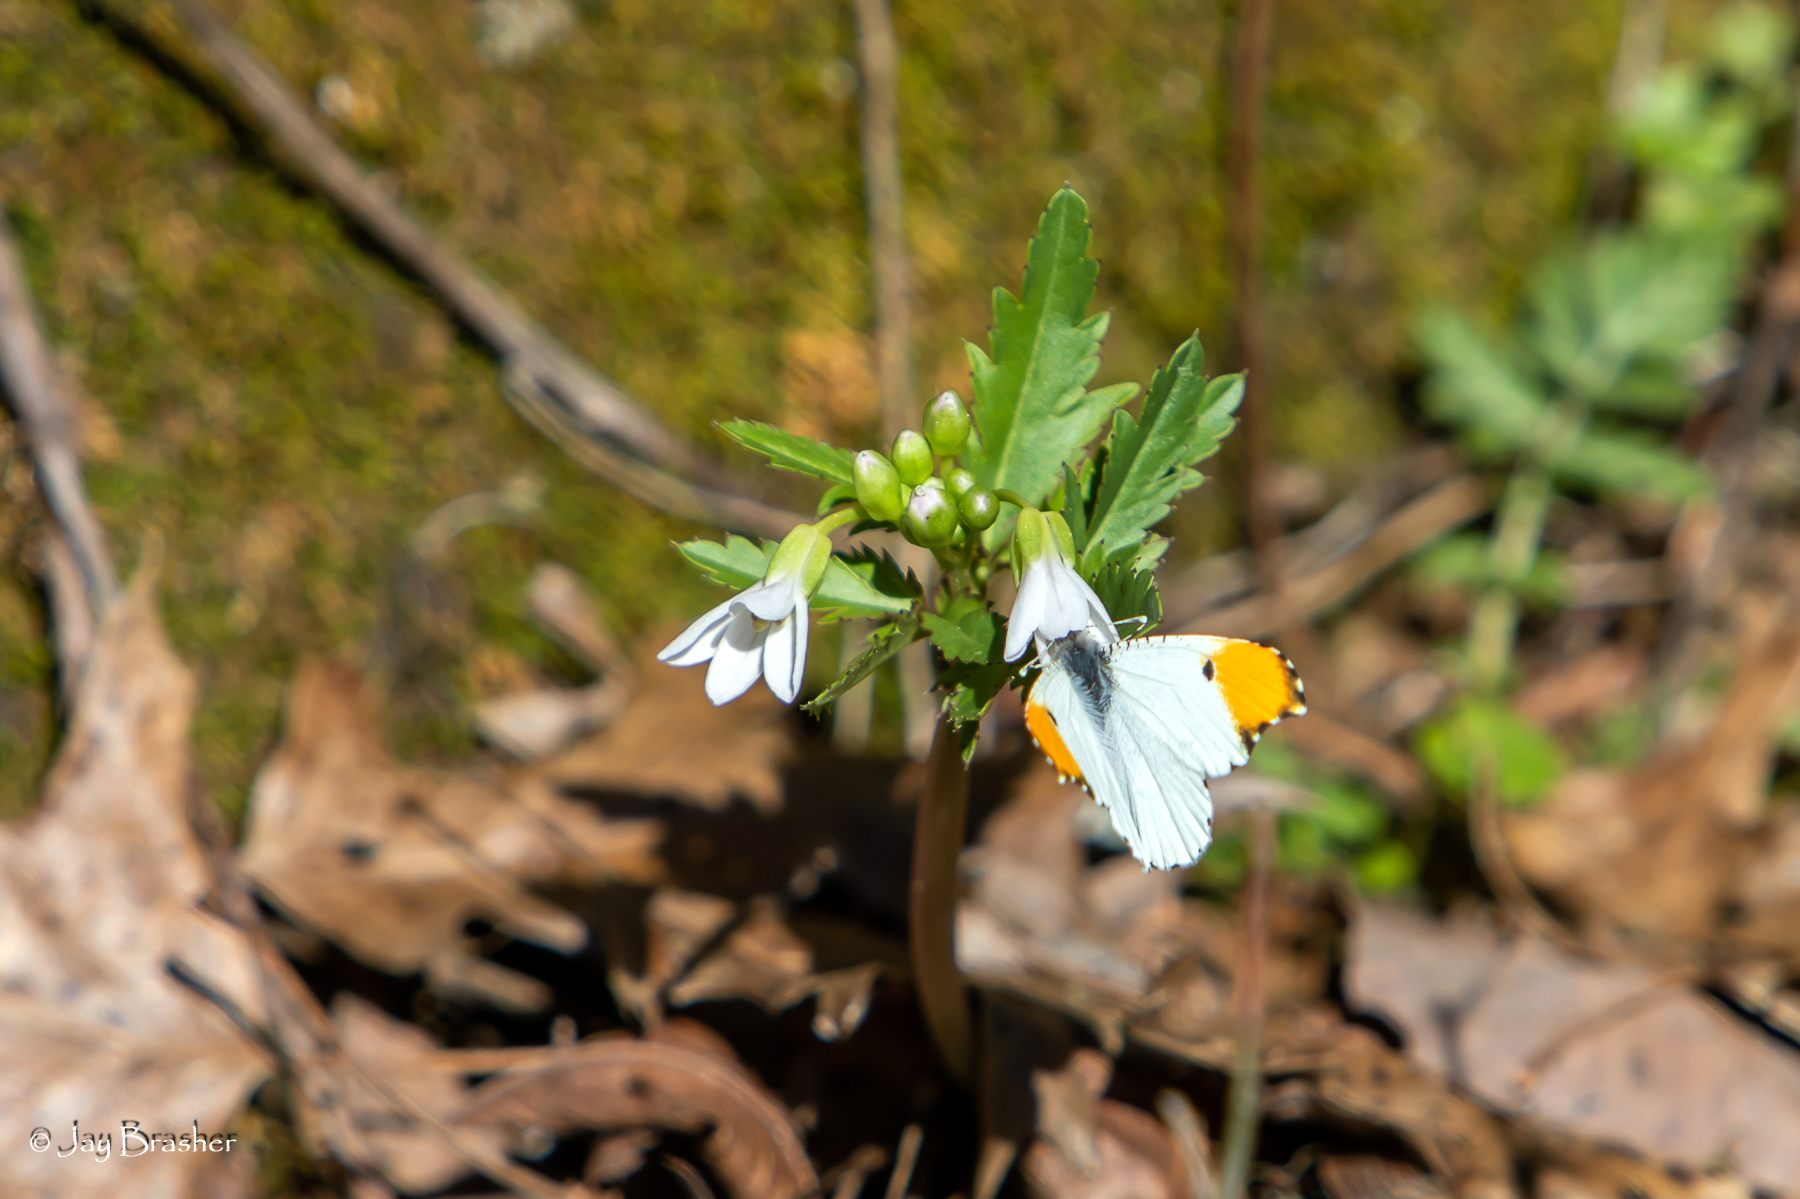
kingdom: Plantae
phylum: Tracheophyta
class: Magnoliopsida
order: Brassicales
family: Brassicaceae
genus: Cardamine
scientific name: Cardamine concatenata
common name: Cut-leaf toothcup
